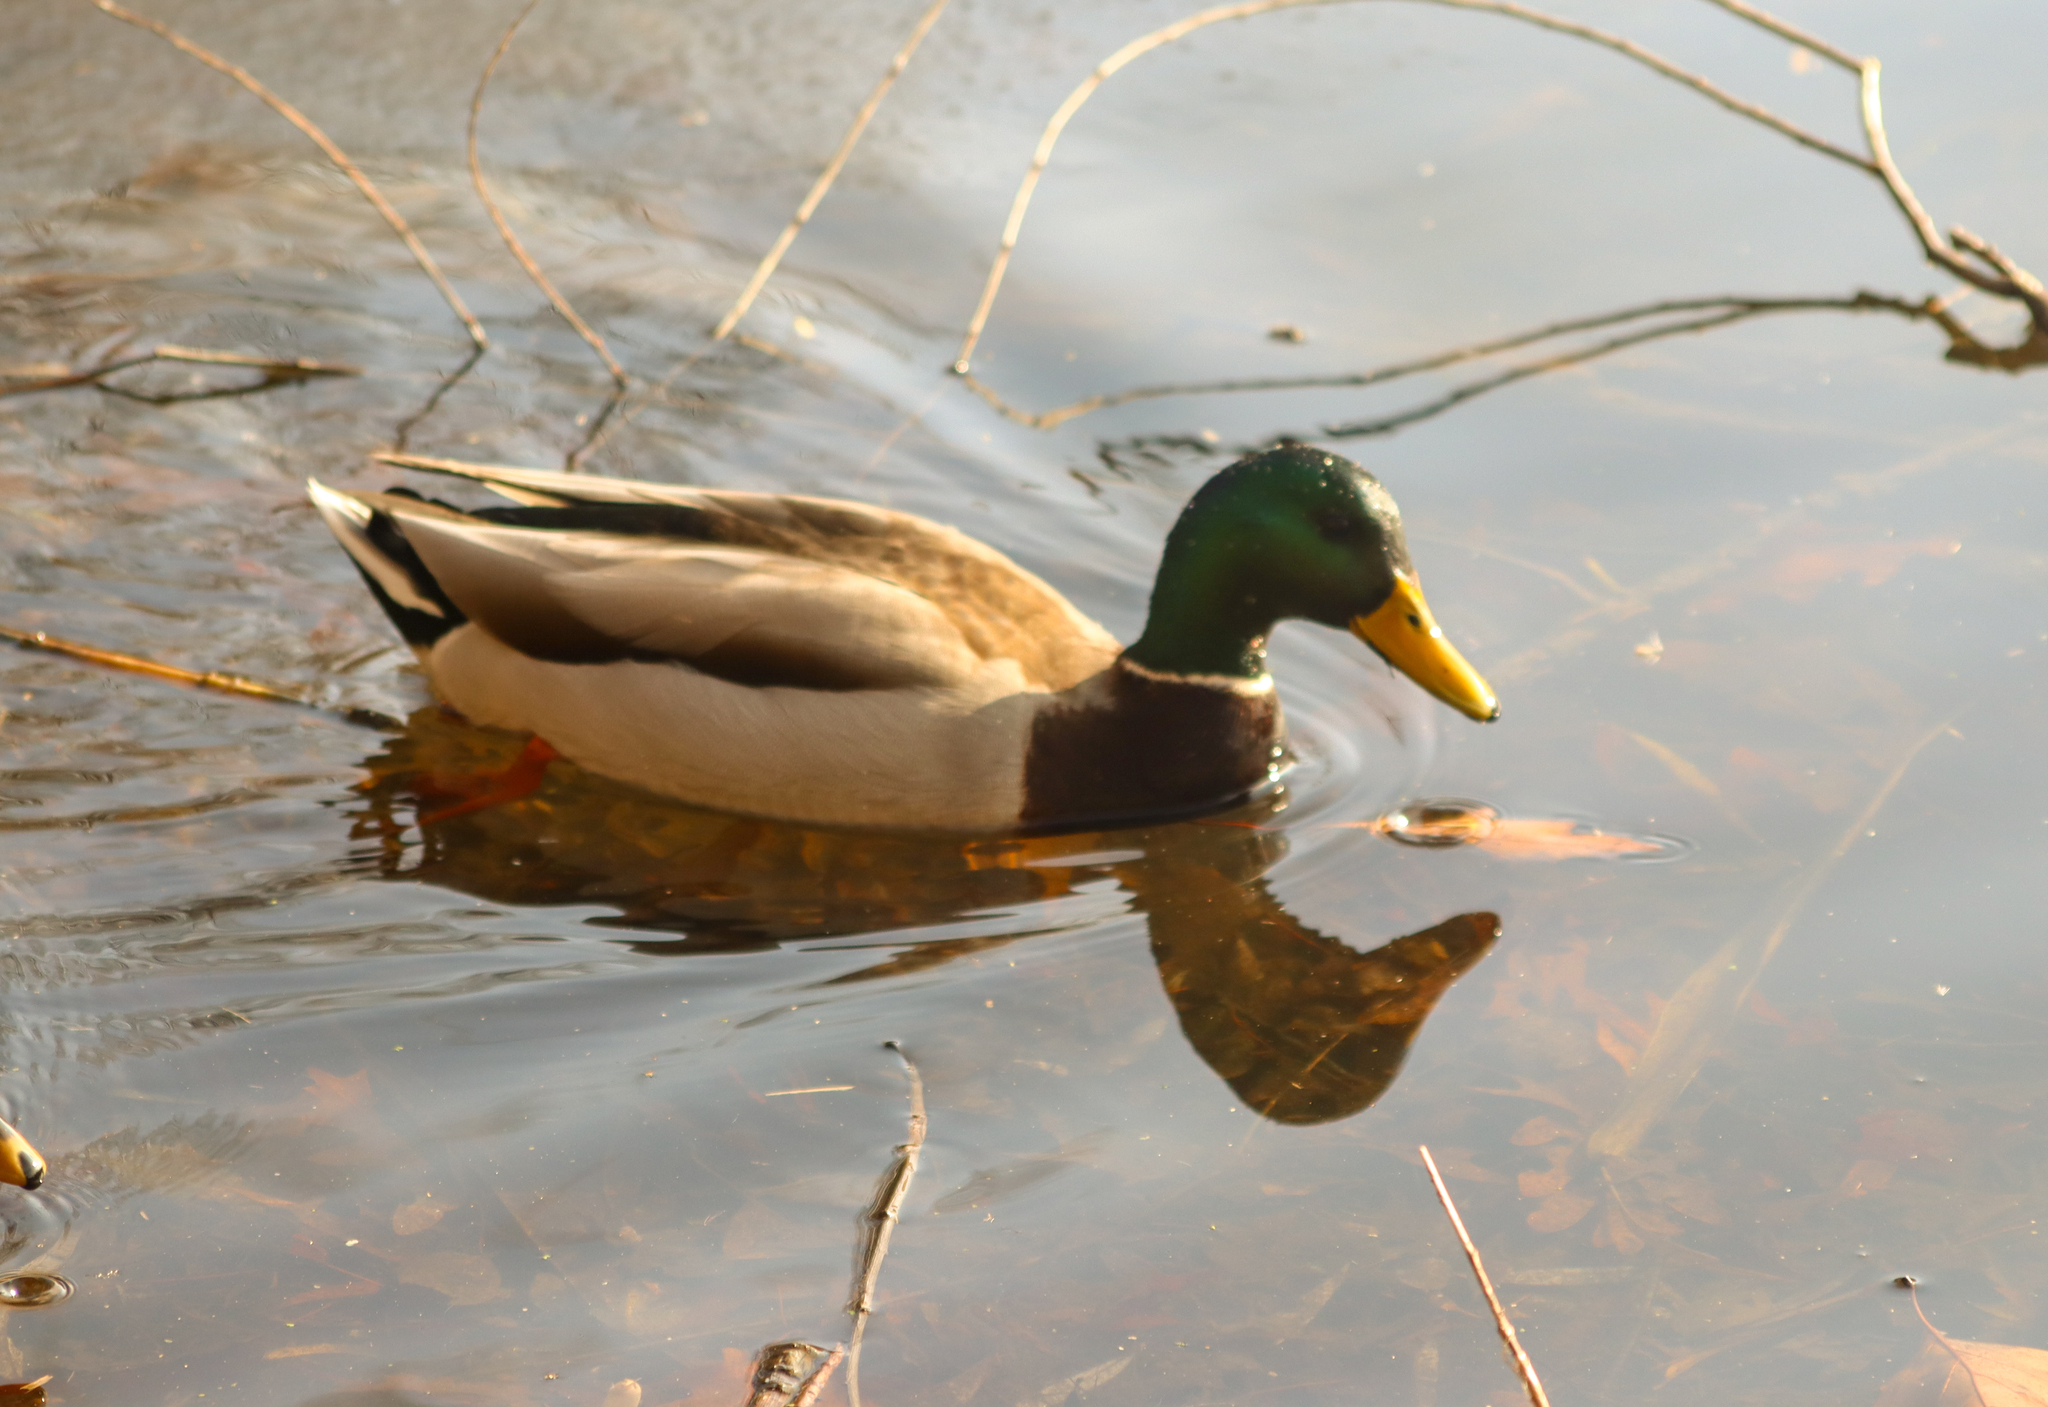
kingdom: Animalia
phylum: Chordata
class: Aves
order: Anseriformes
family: Anatidae
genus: Anas
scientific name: Anas platyrhynchos
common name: Mallard
